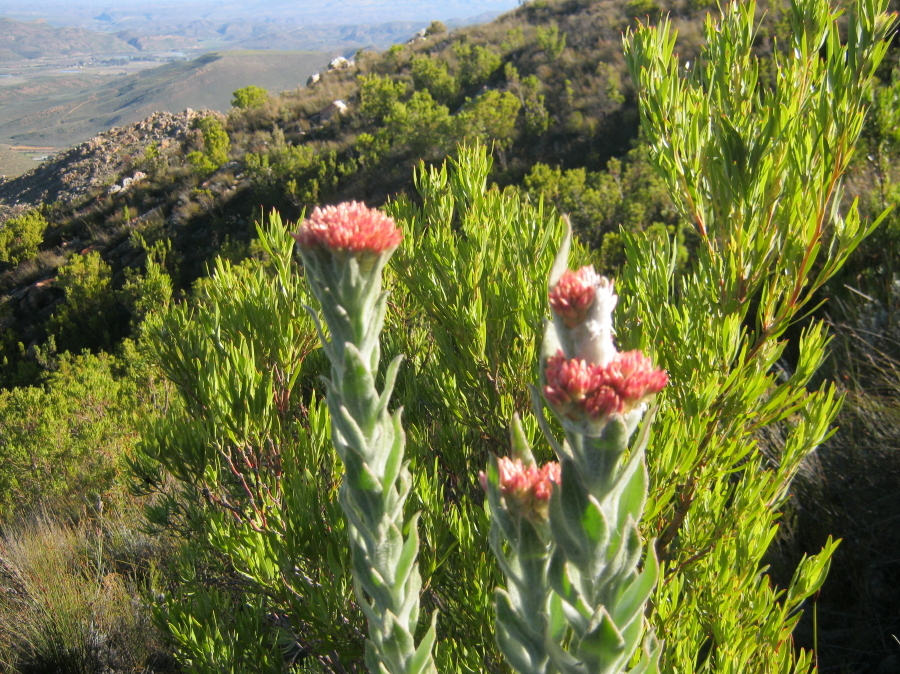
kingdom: Plantae
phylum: Tracheophyta
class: Magnoliopsida
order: Asterales
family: Asteraceae
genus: Syncarpha
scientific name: Syncarpha milleflora
